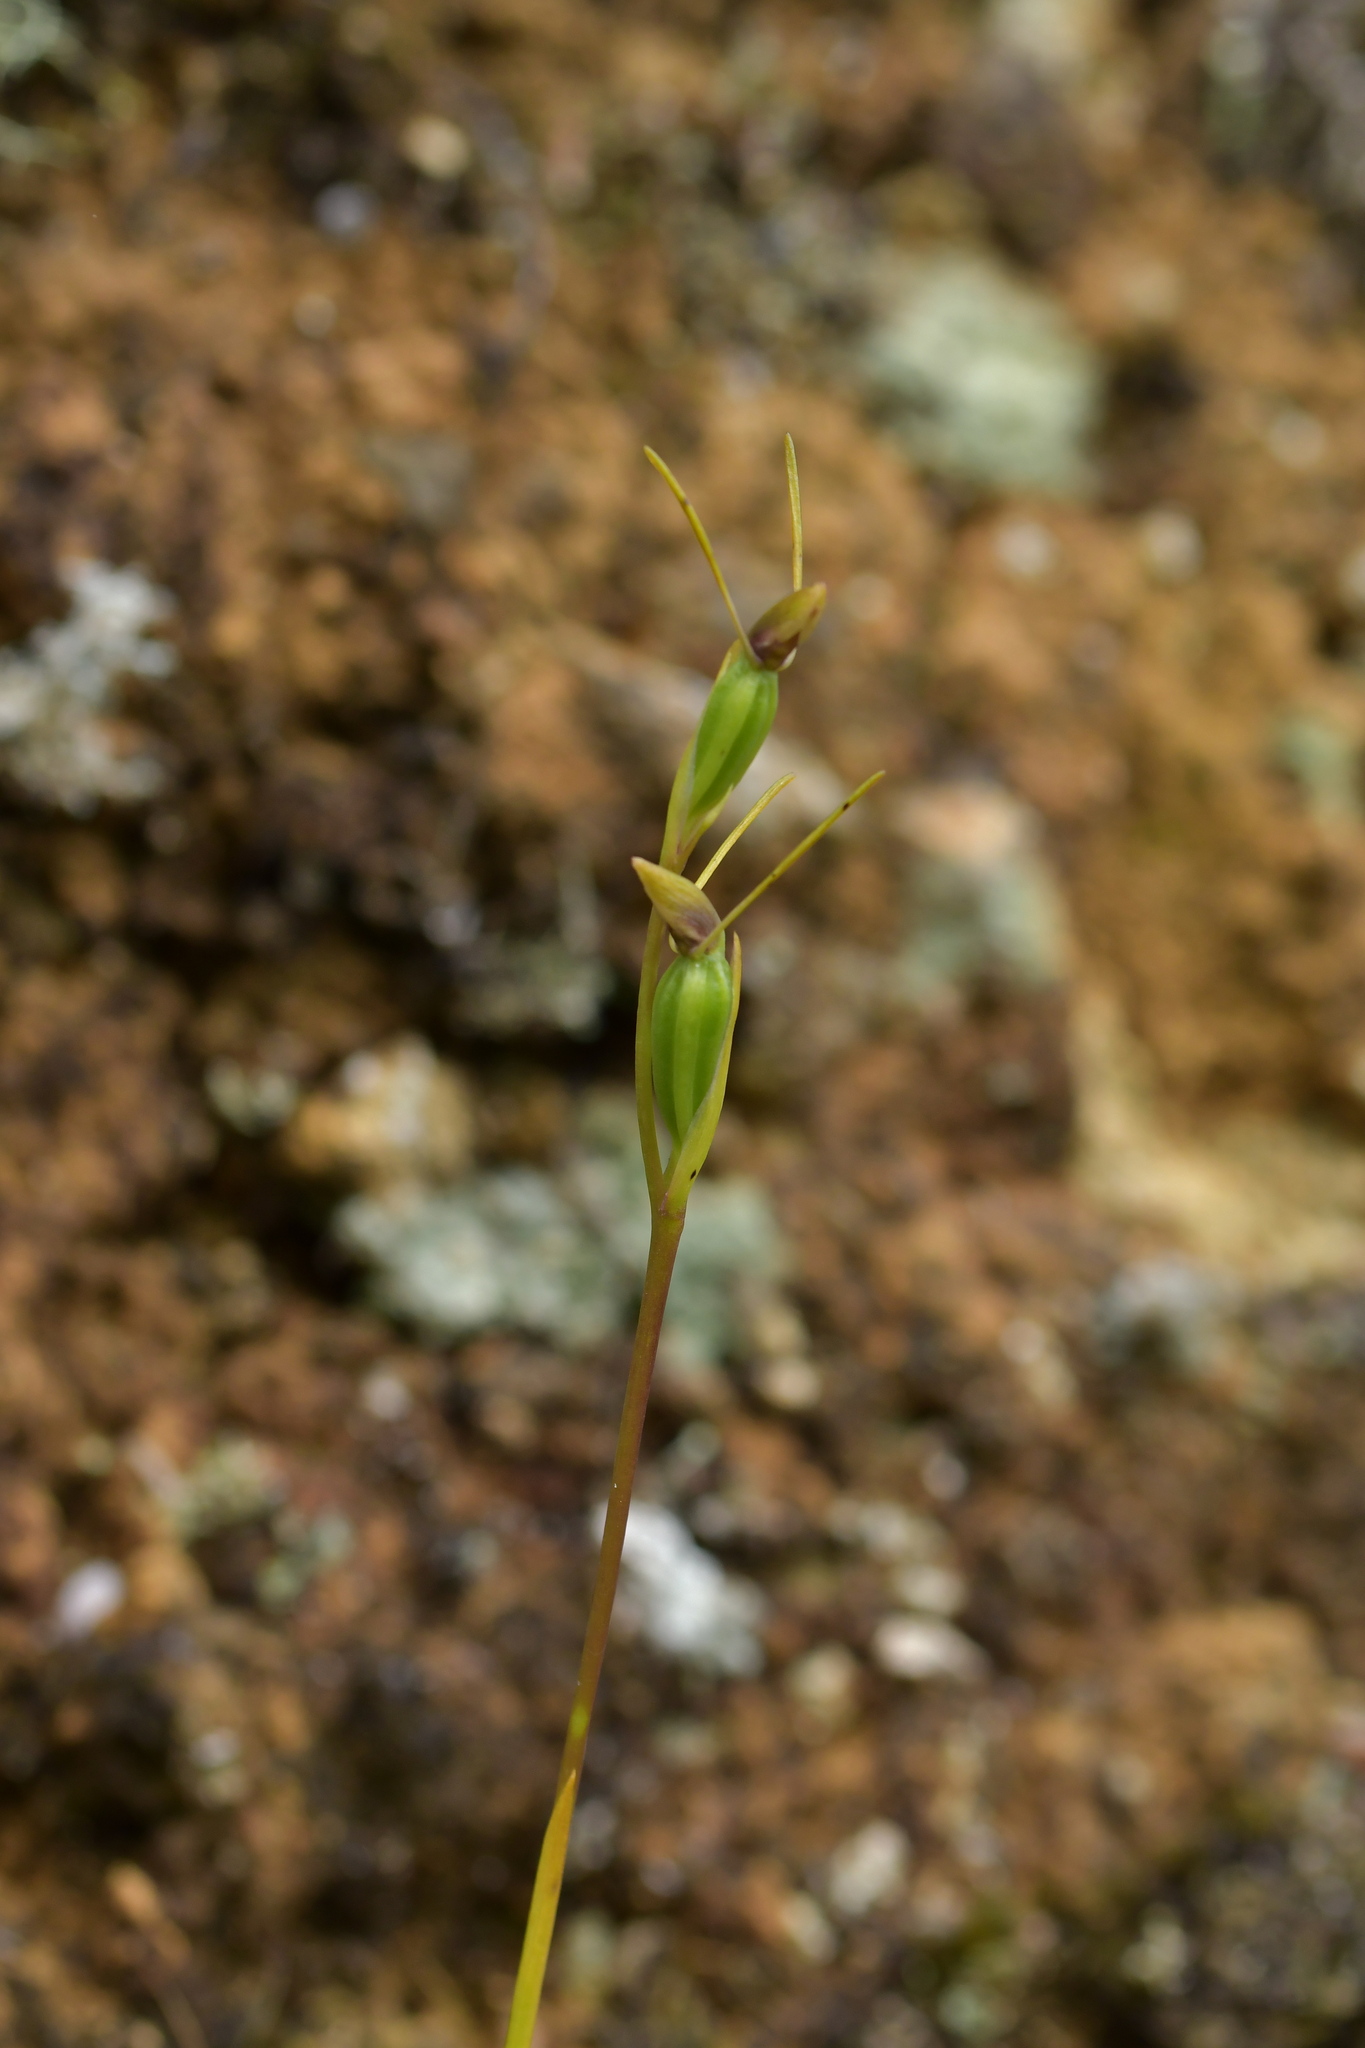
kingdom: Plantae
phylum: Tracheophyta
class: Liliopsida
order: Asparagales
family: Orchidaceae
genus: Orthoceras
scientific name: Orthoceras novae-zeelandiae
